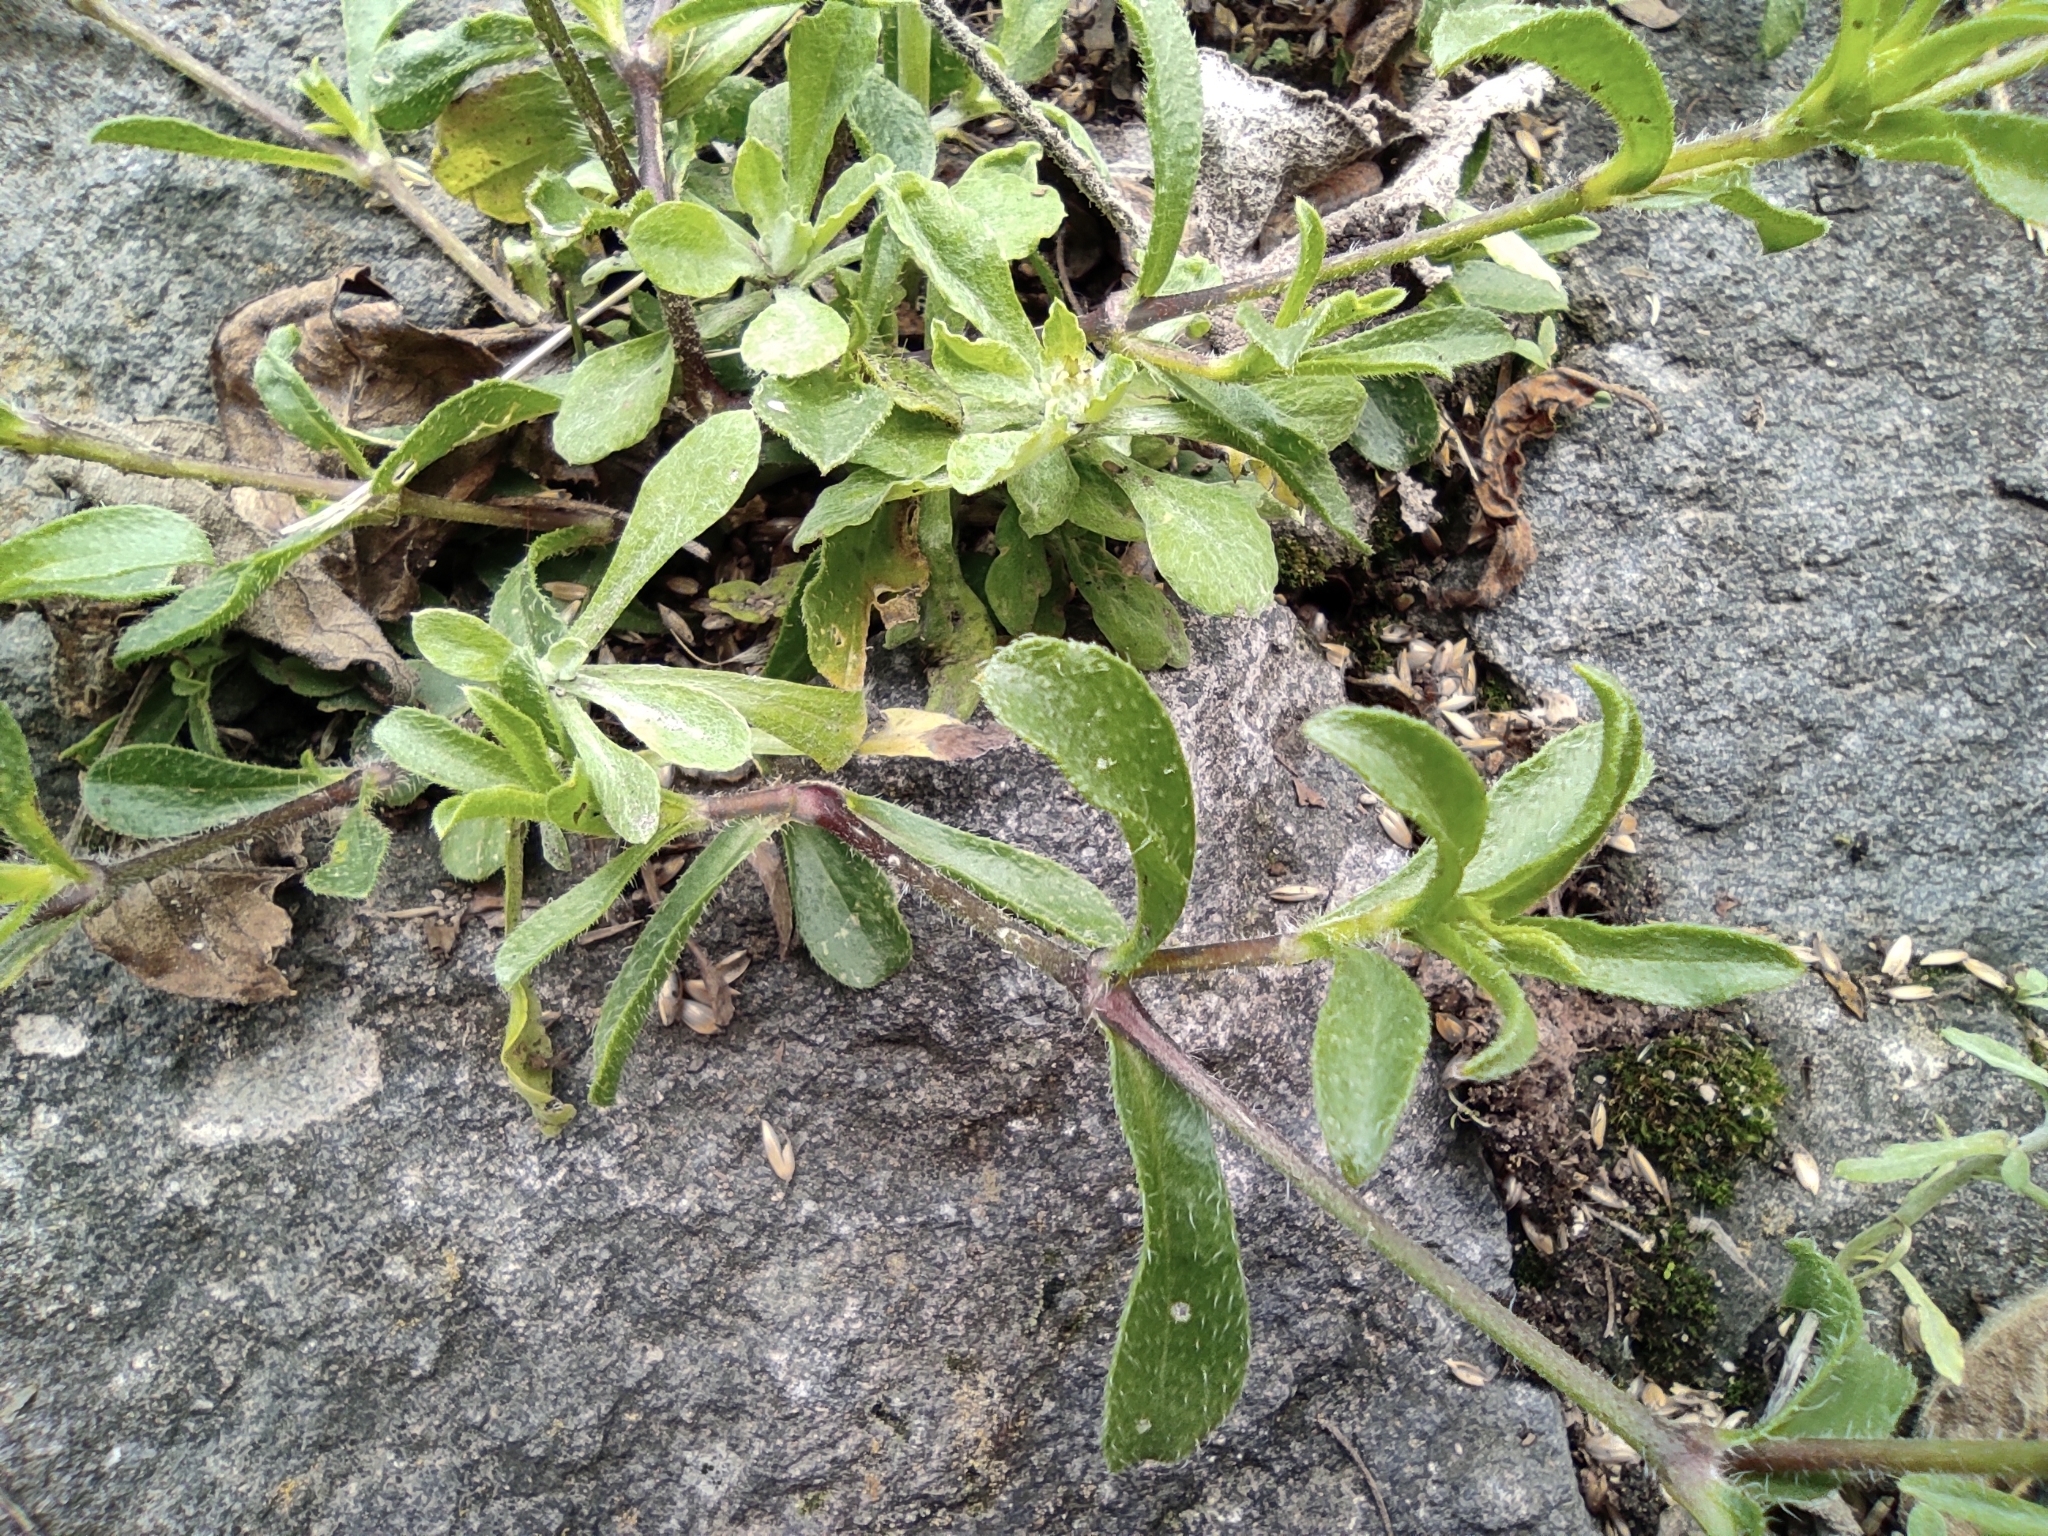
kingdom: Plantae
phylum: Tracheophyta
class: Magnoliopsida
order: Caryophyllales
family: Caryophyllaceae
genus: Silene
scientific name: Silene gallica
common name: Small-flowered catchfly
